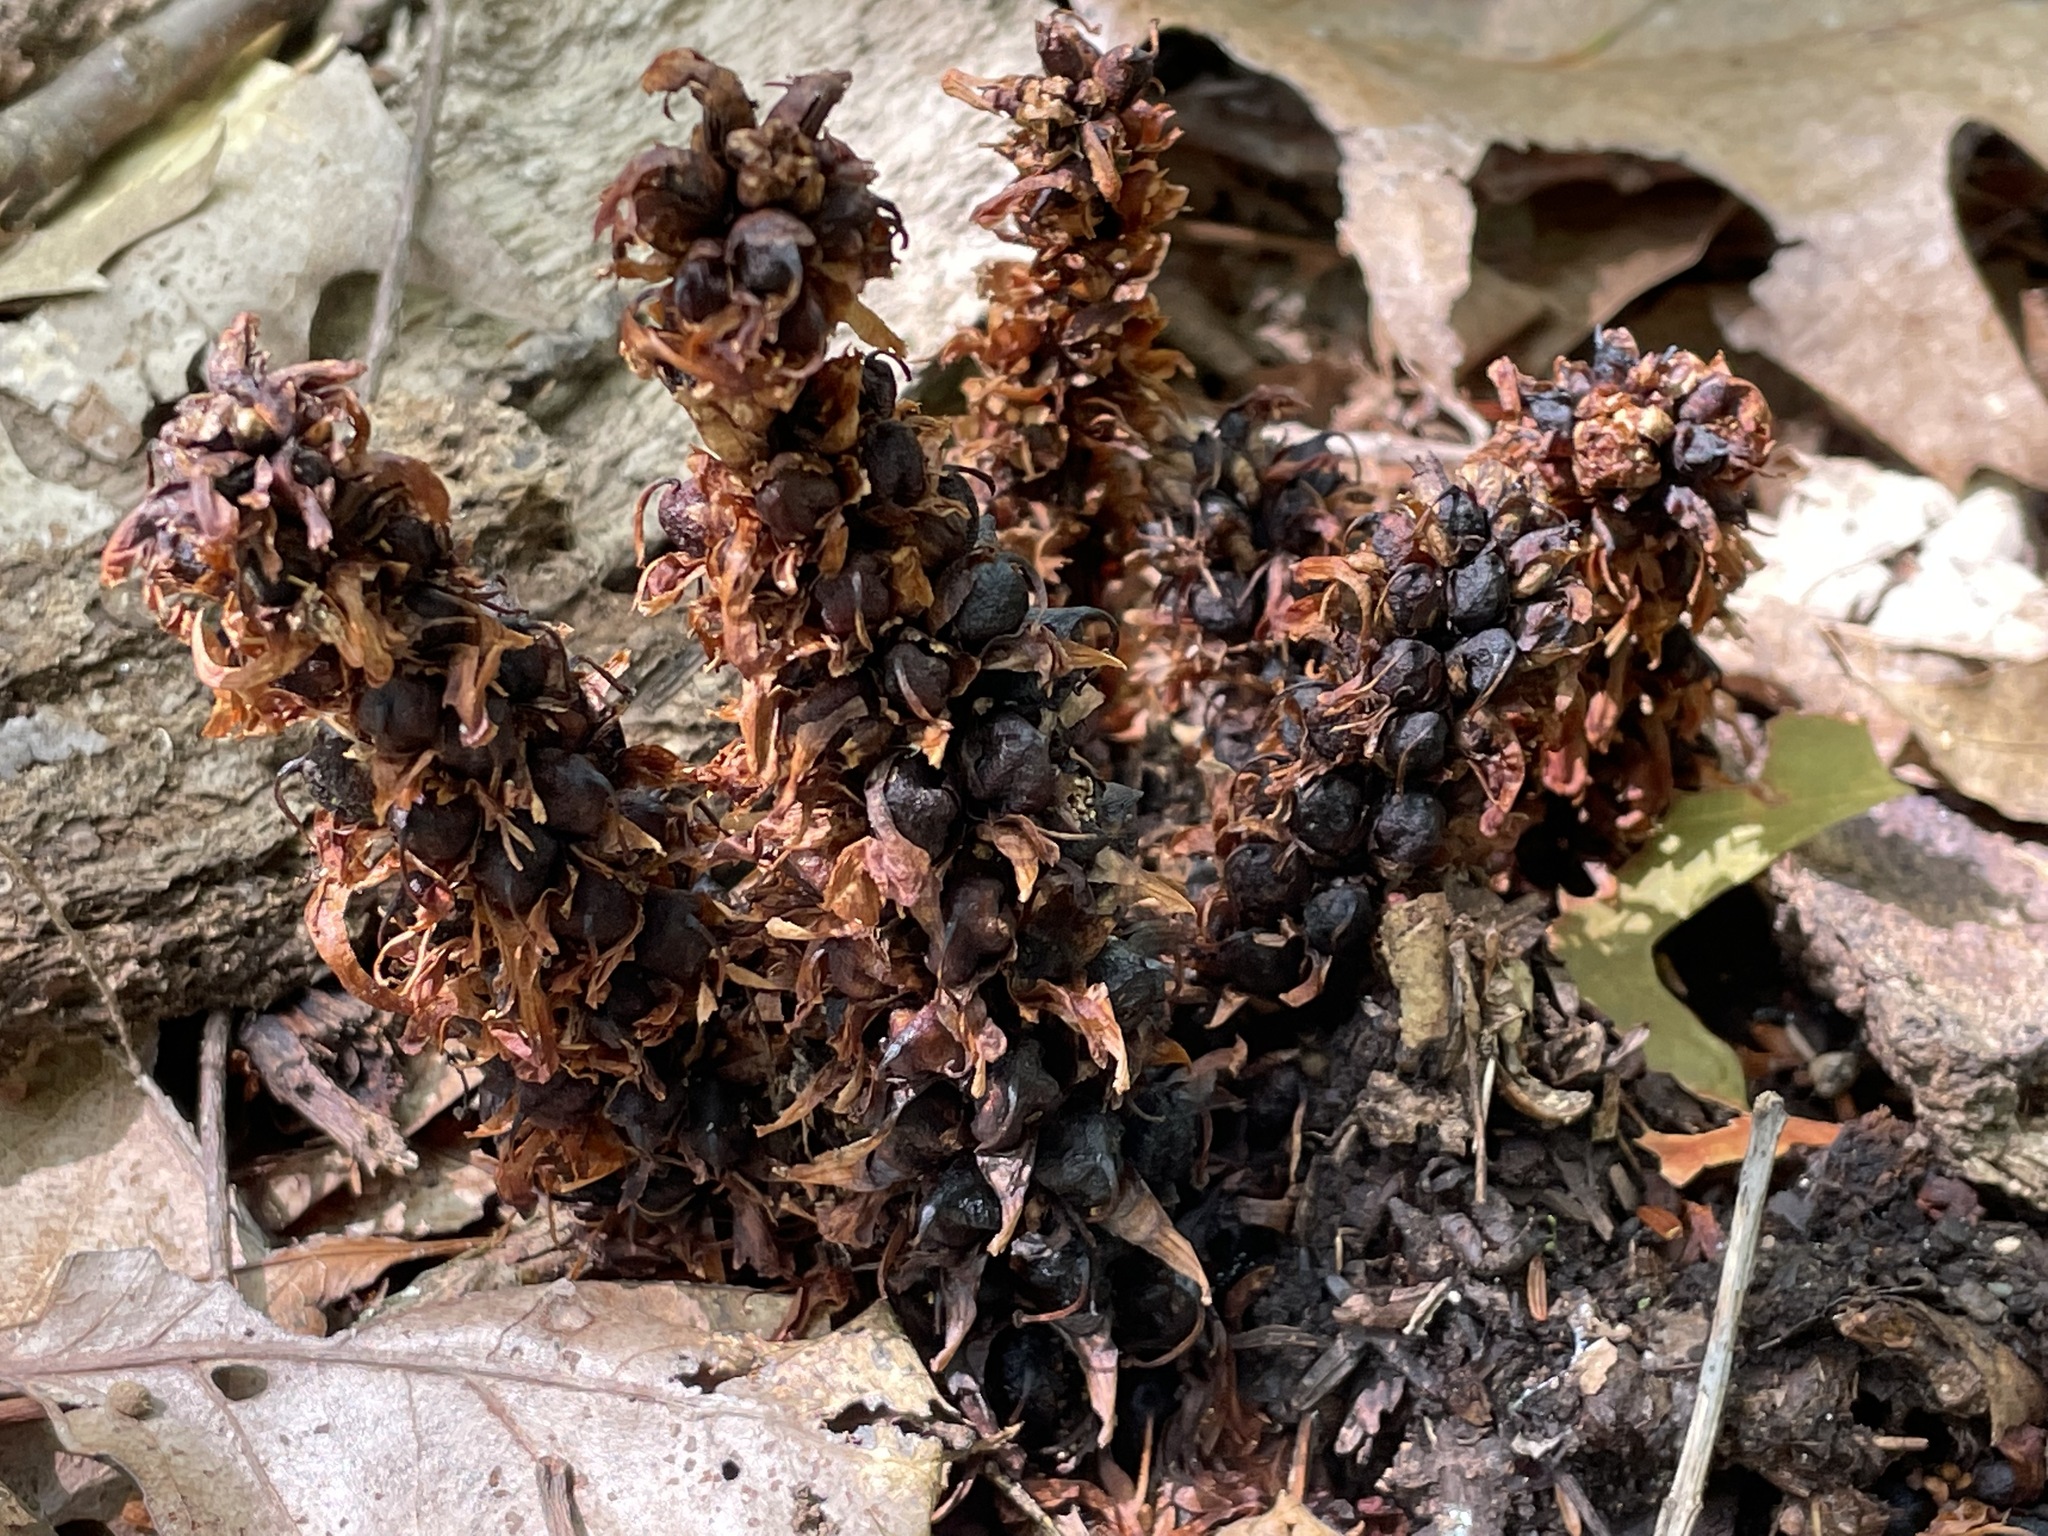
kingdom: Plantae
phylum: Tracheophyta
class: Magnoliopsida
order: Lamiales
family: Orobanchaceae
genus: Conopholis
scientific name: Conopholis americana
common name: American cancer-root
